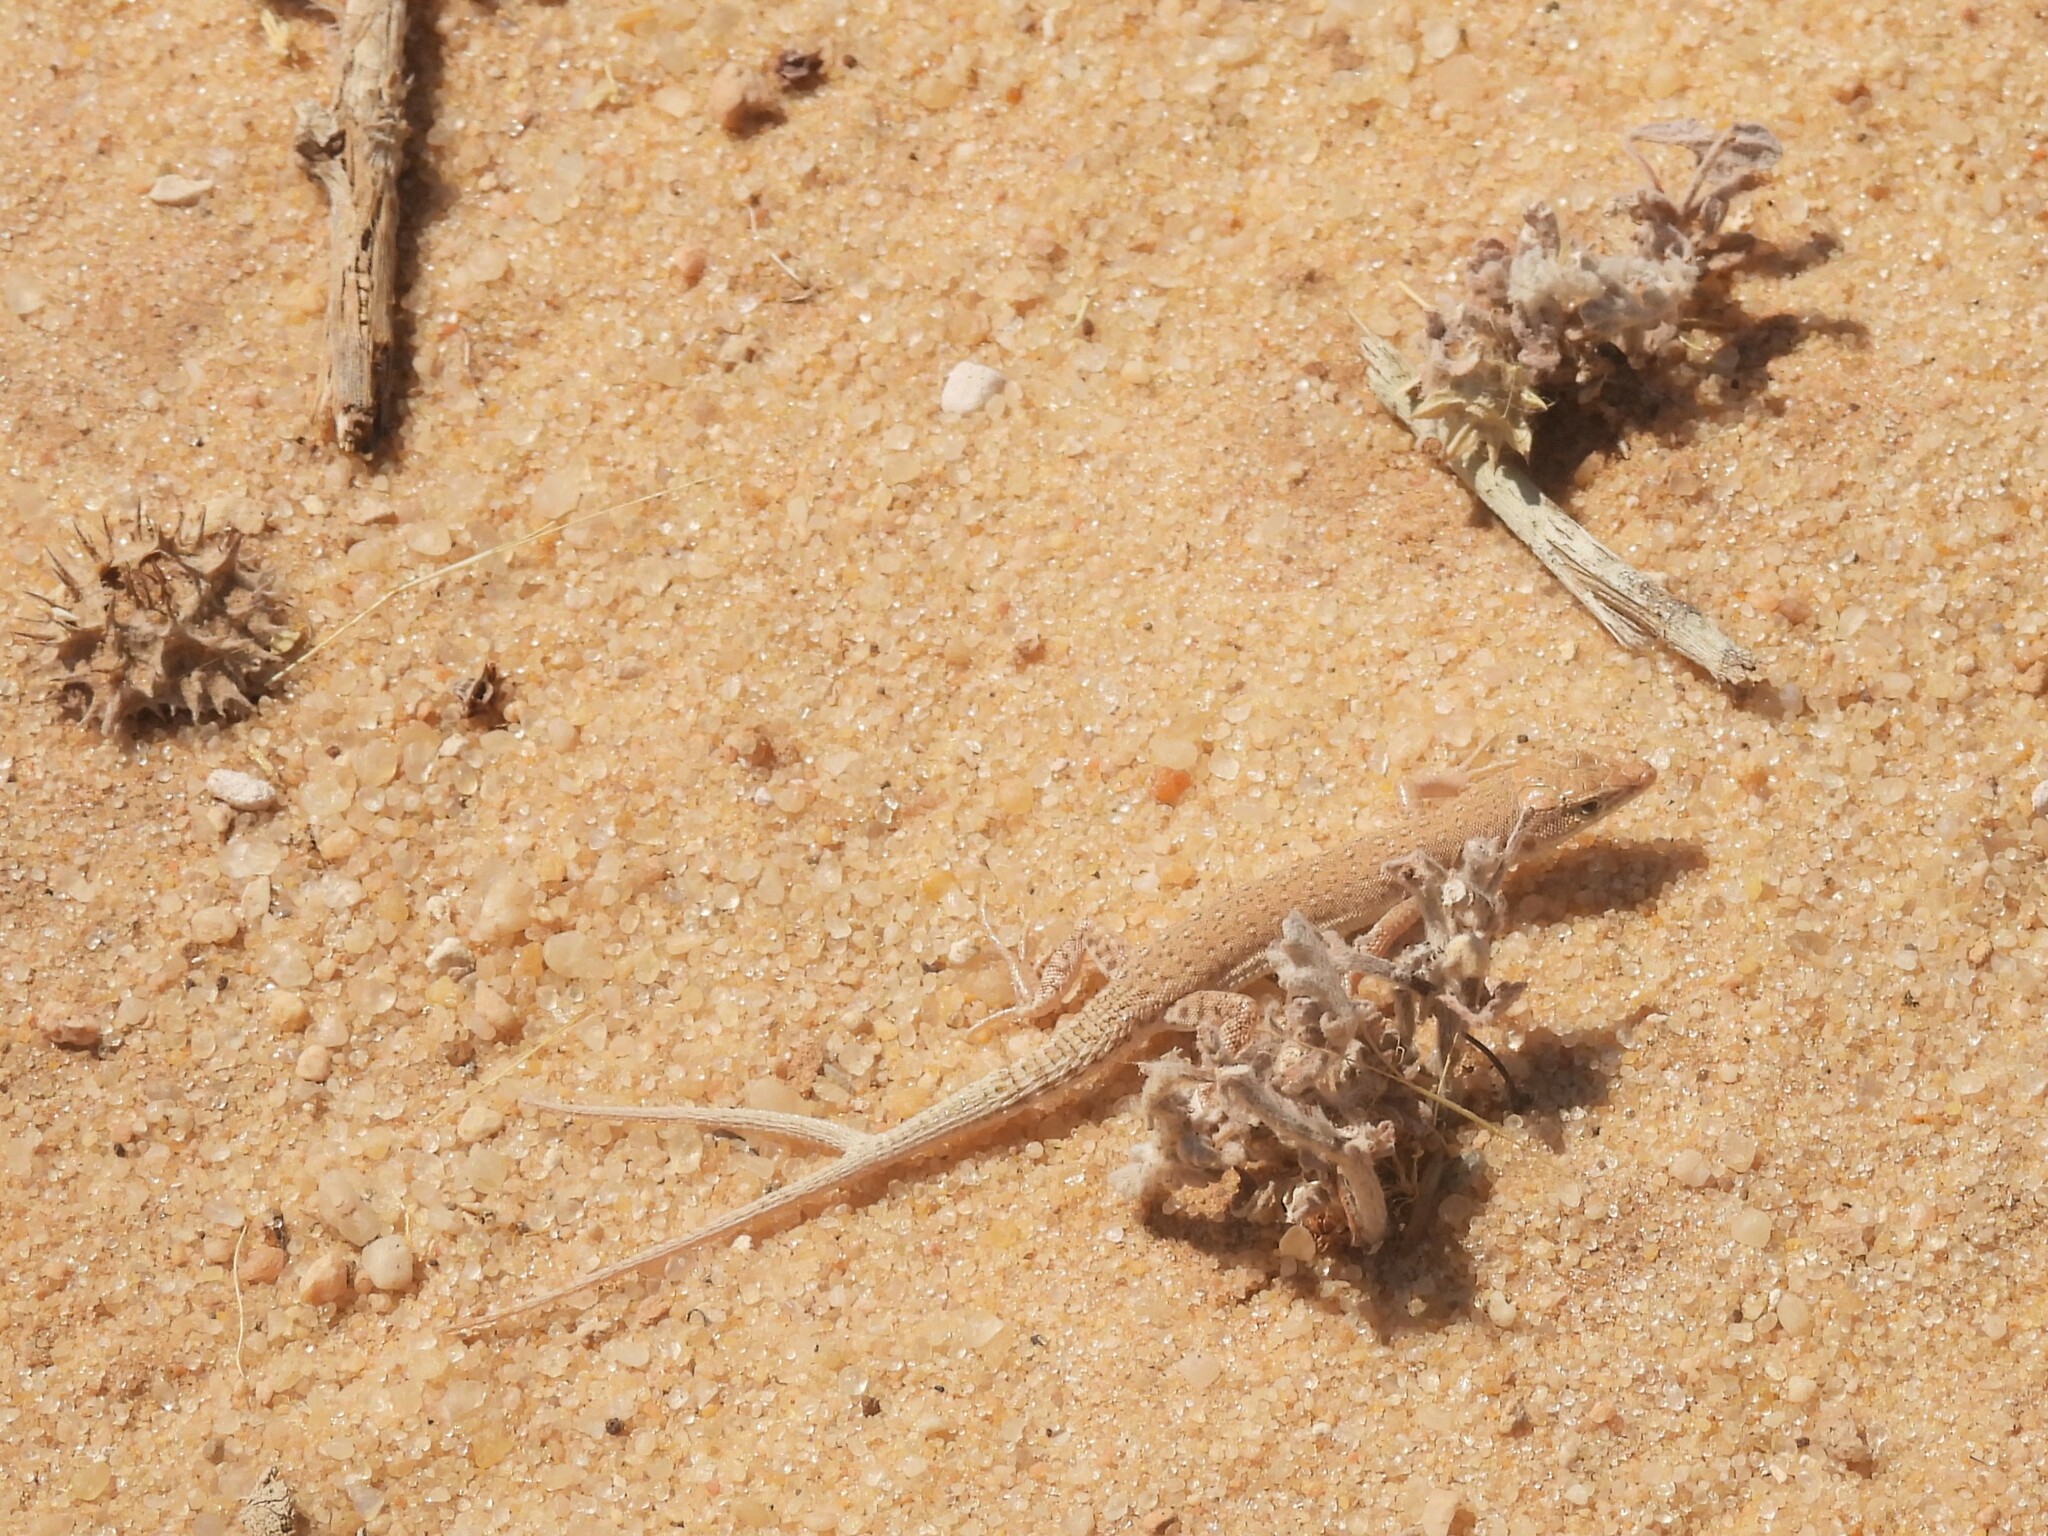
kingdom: Animalia
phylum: Chordata
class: Squamata
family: Lacertidae
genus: Mesalina
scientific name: Mesalina guttulata
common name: Desert lacerta
